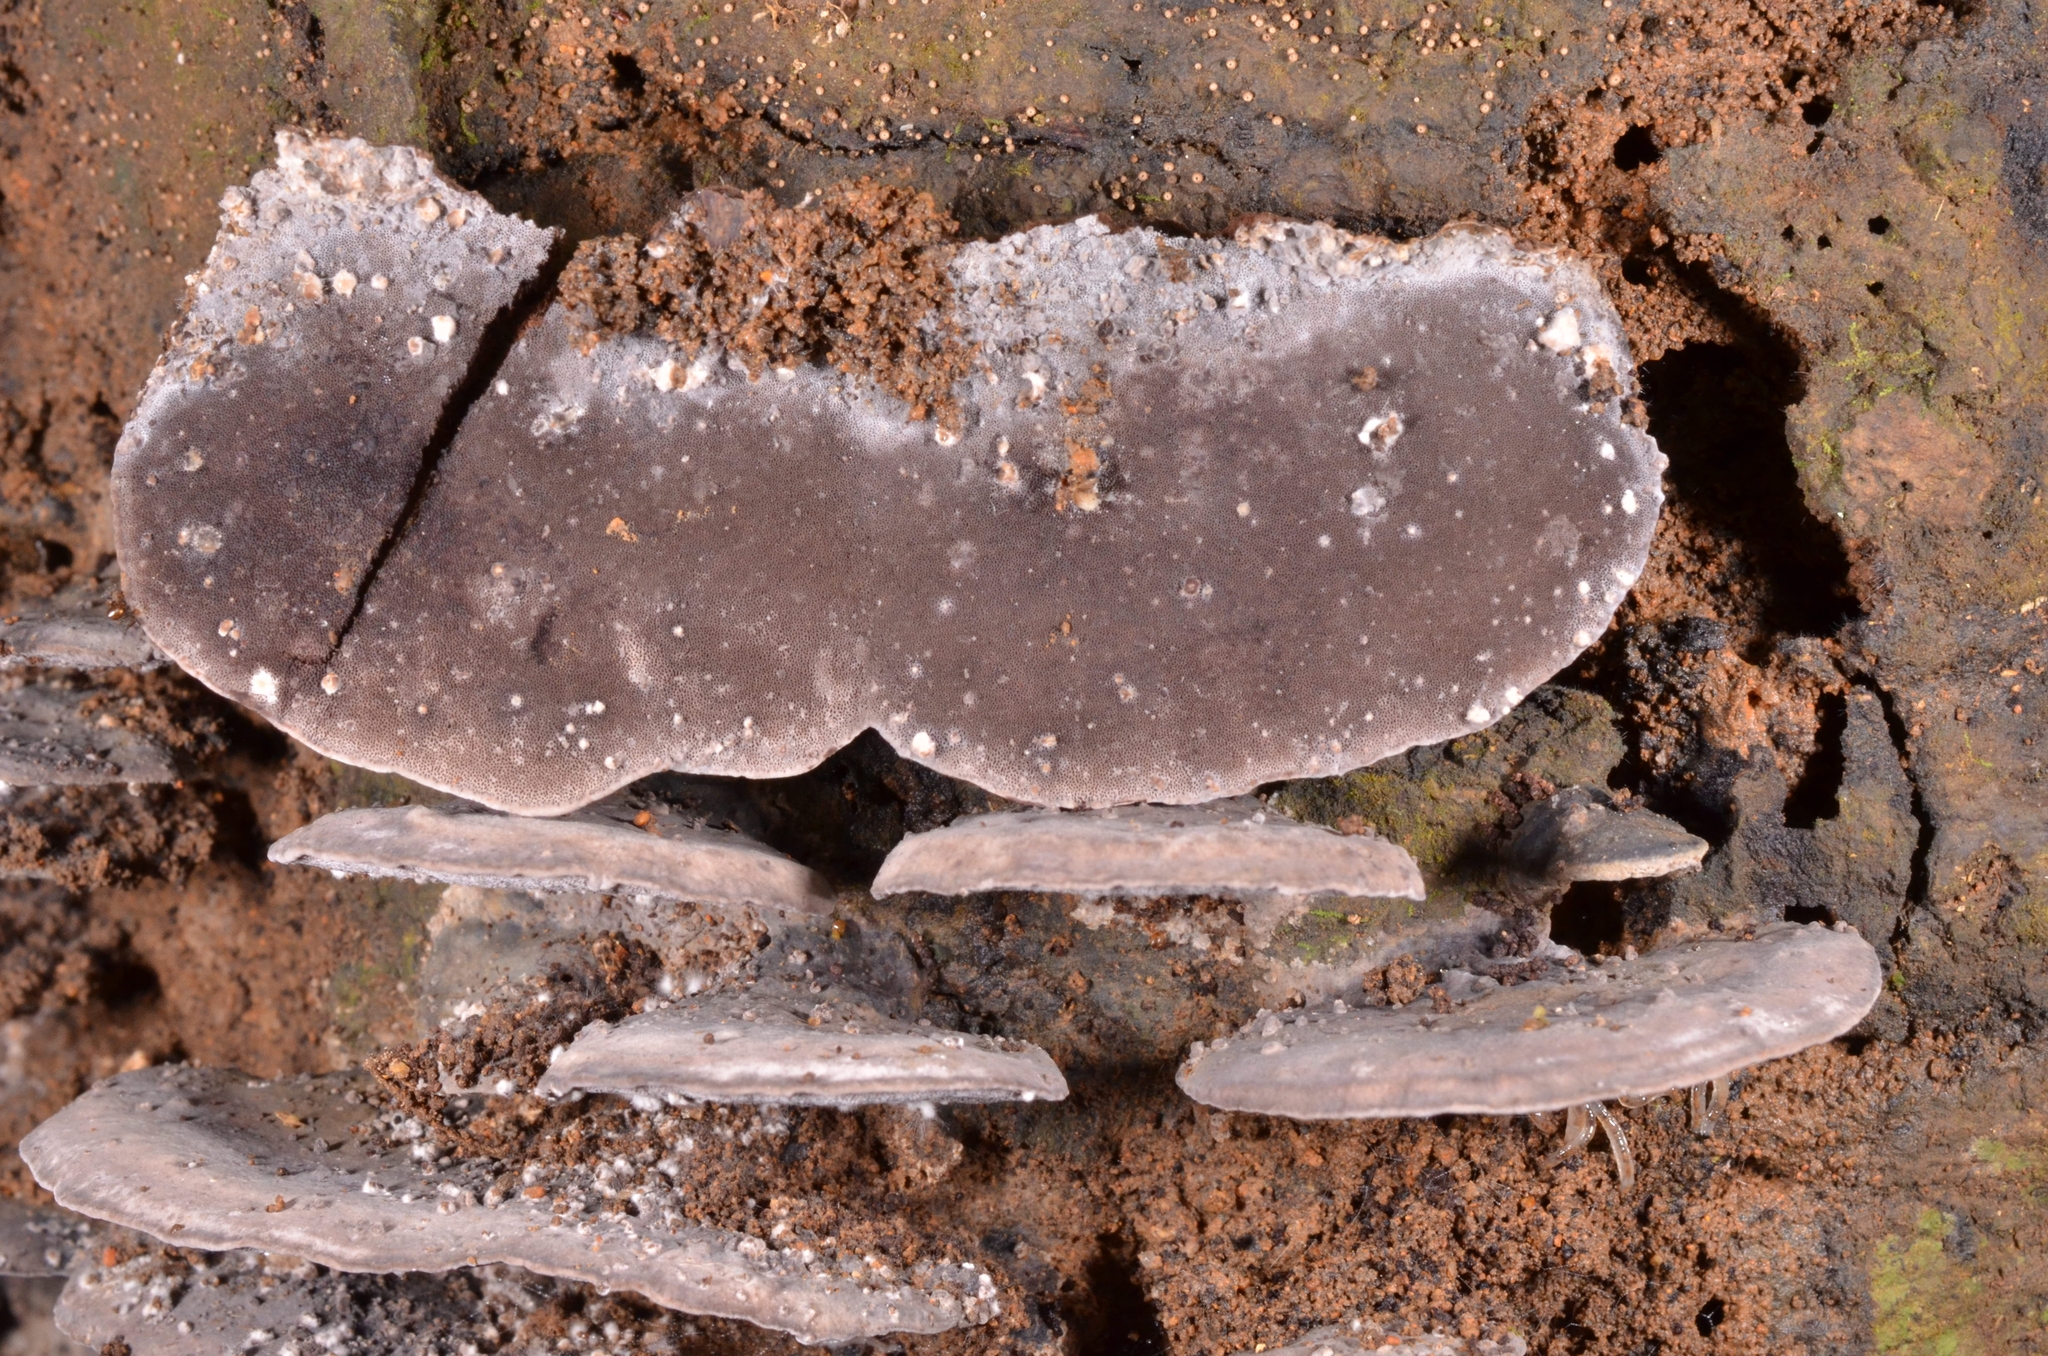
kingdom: Fungi
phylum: Basidiomycota
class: Agaricomycetes
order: Polyporales
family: Steccherinaceae
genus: Nigroporus
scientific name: Nigroporus durus
